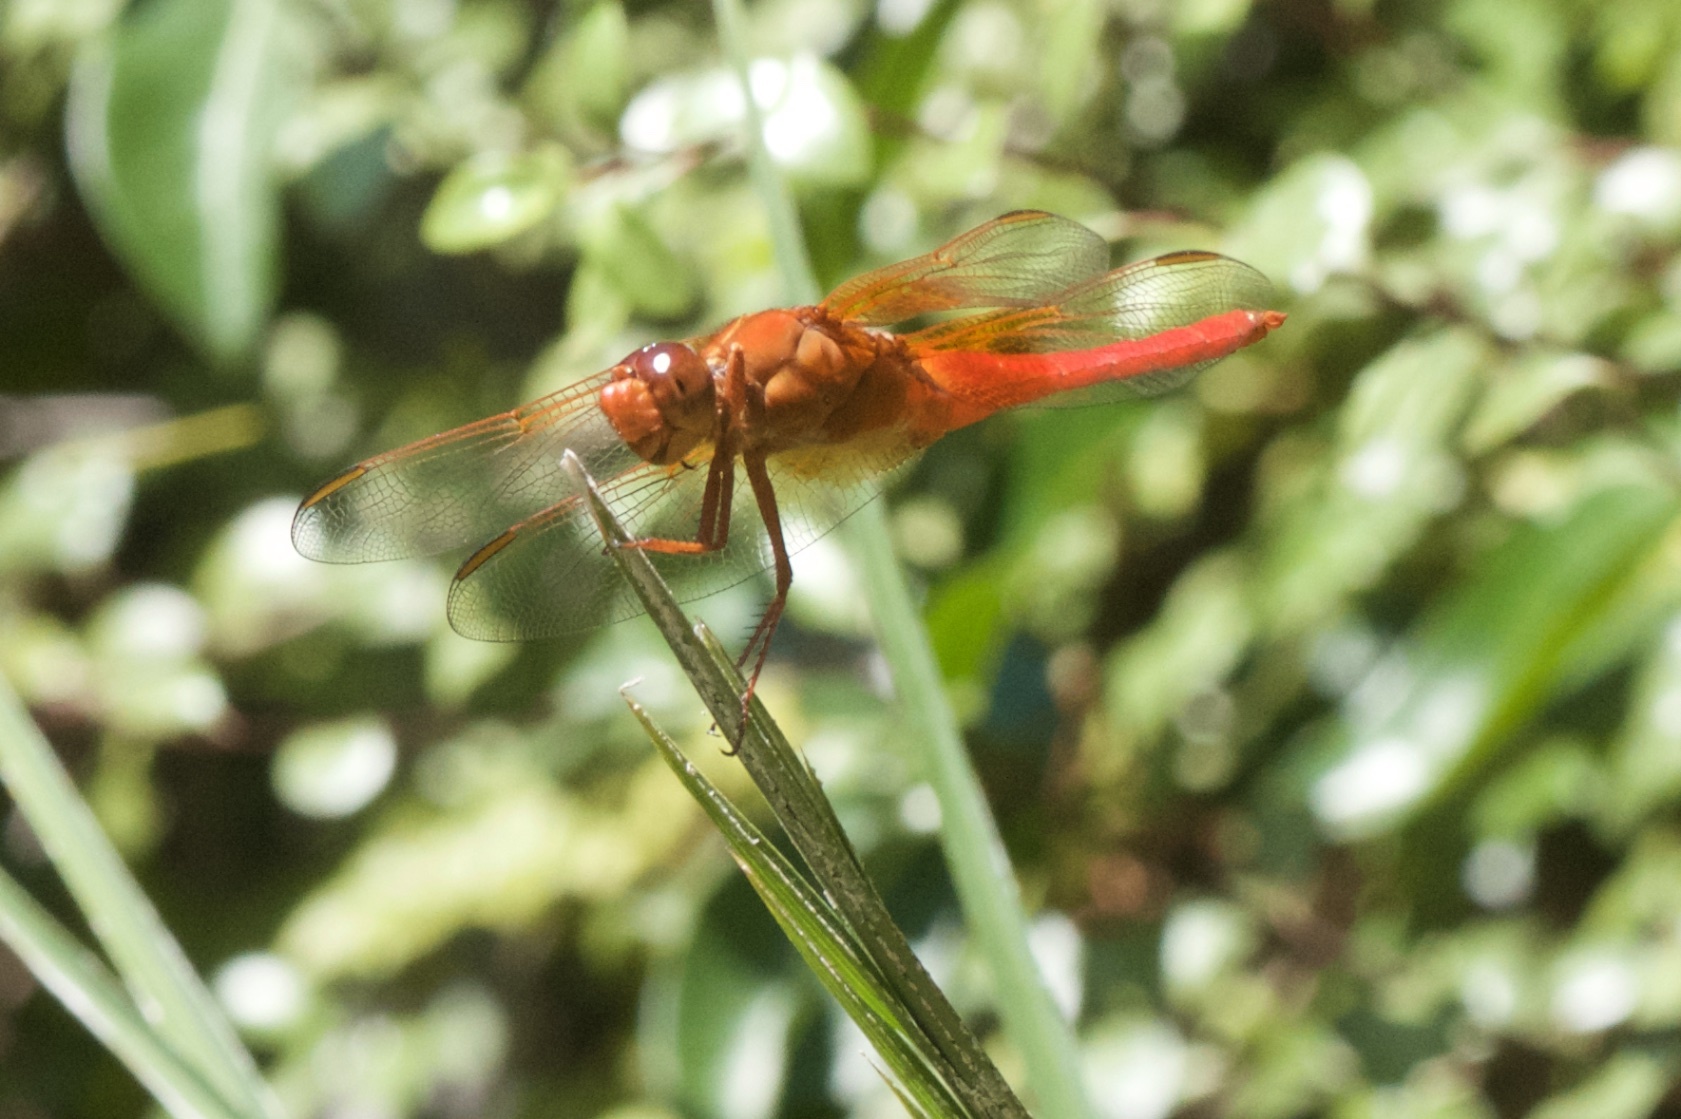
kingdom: Animalia
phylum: Arthropoda
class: Insecta
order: Odonata
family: Libellulidae
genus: Libellula
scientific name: Libellula croceipennis
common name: Neon skimmer
